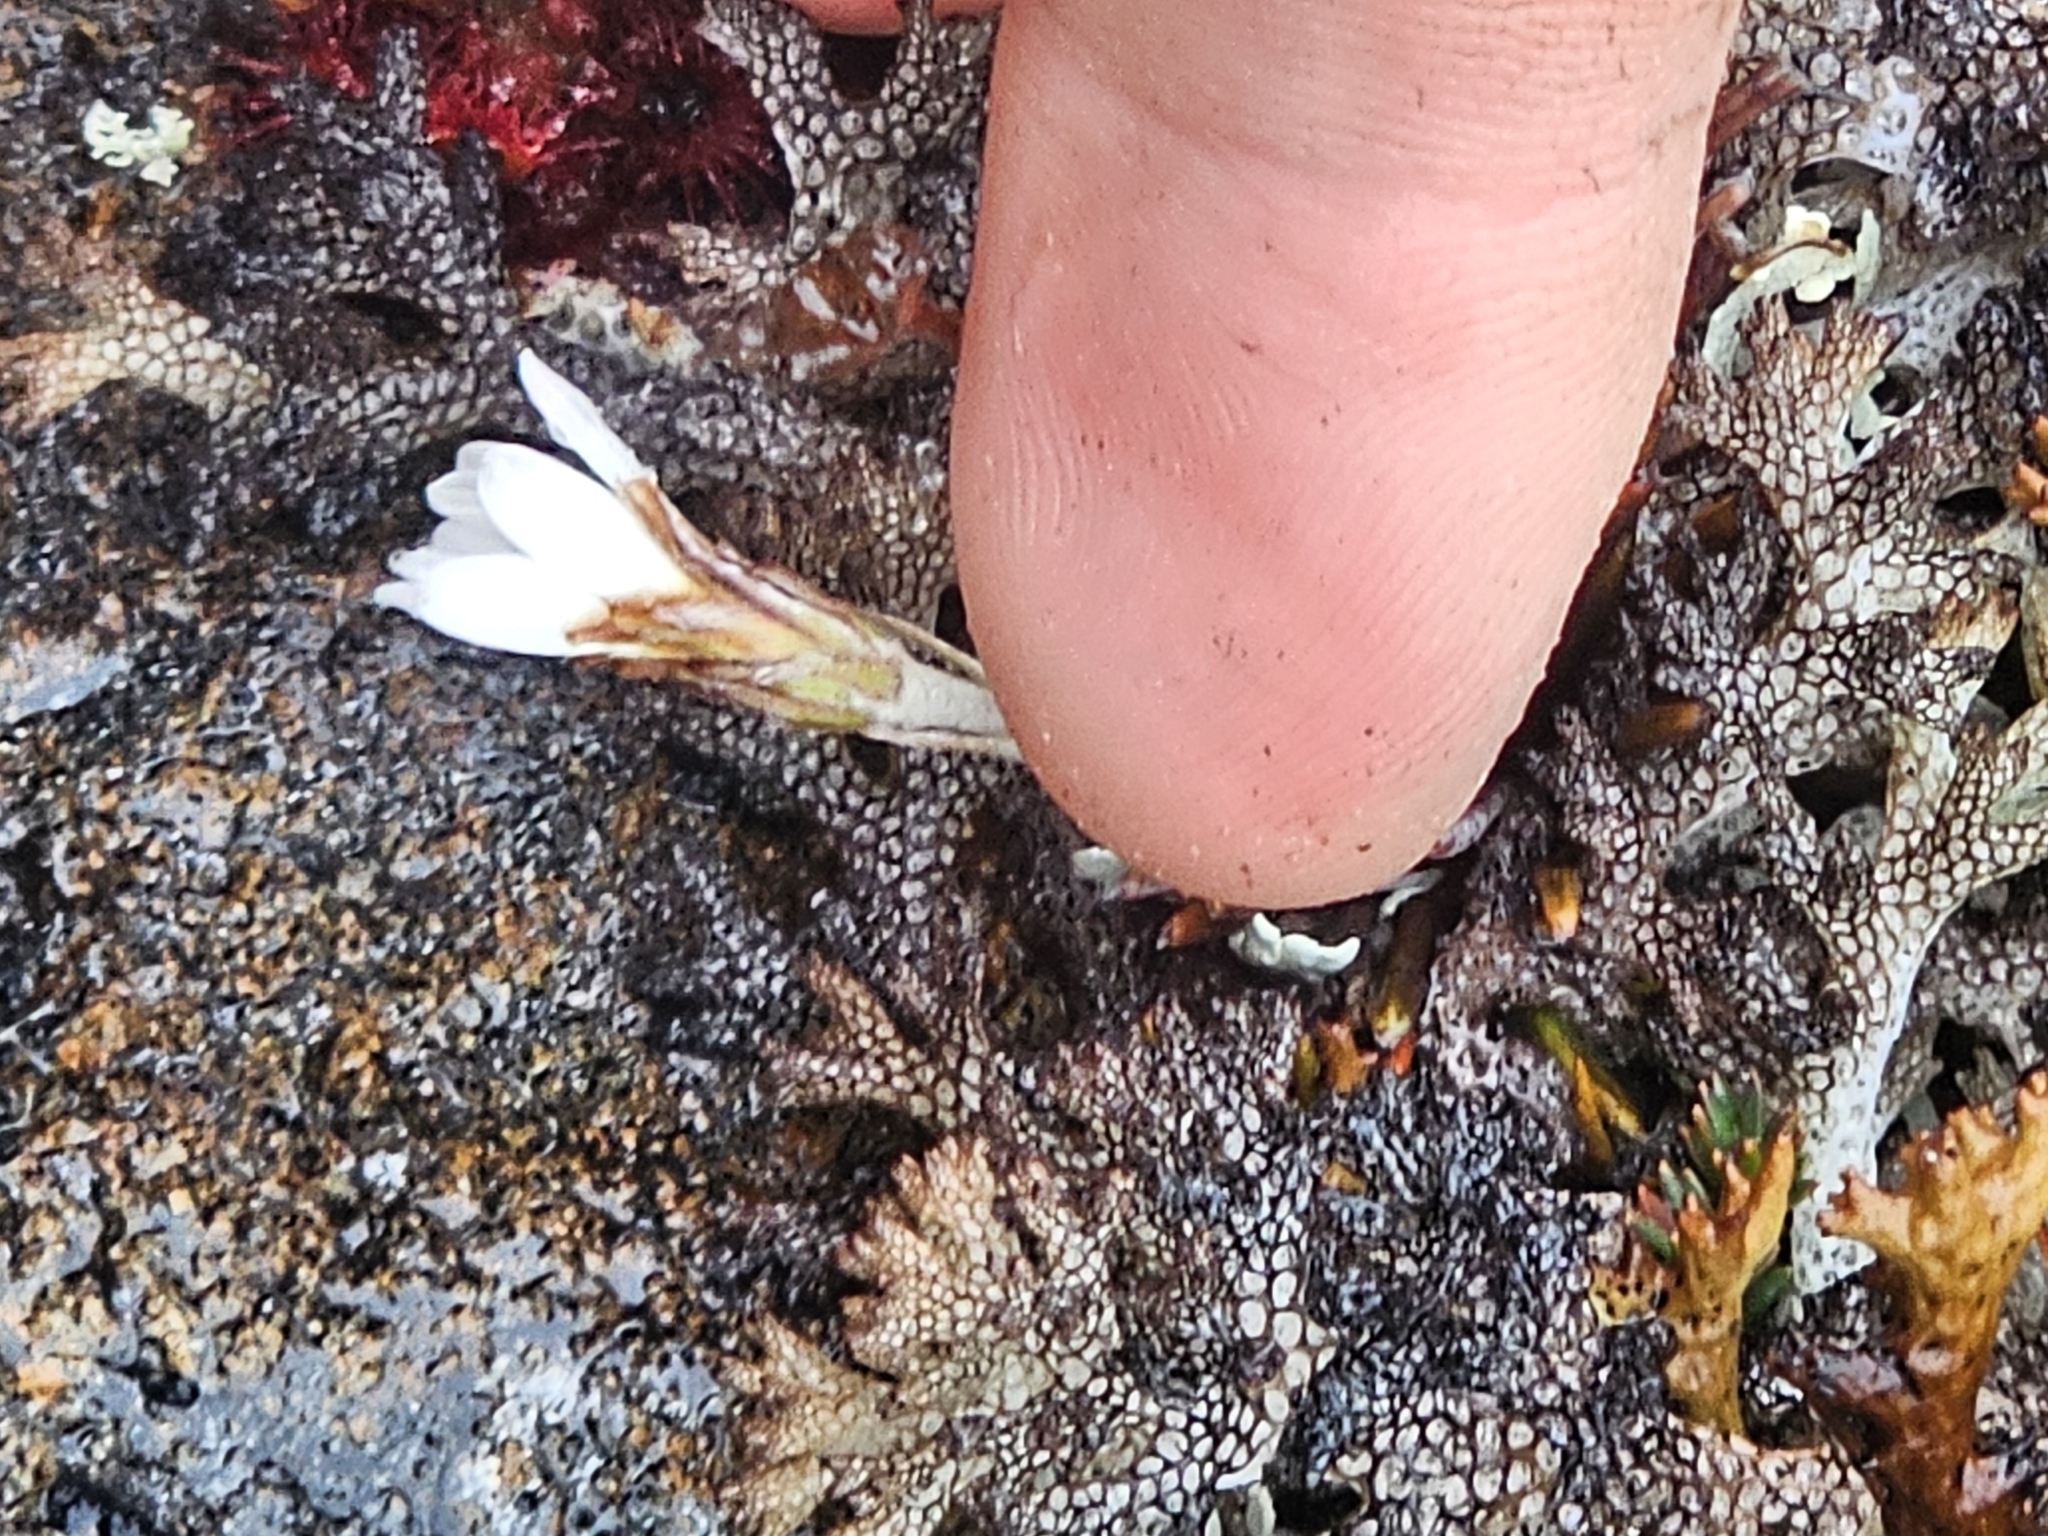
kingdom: Plantae
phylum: Tracheophyta
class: Magnoliopsida
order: Asterales
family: Asteraceae
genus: Celmisia
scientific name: Celmisia similis
